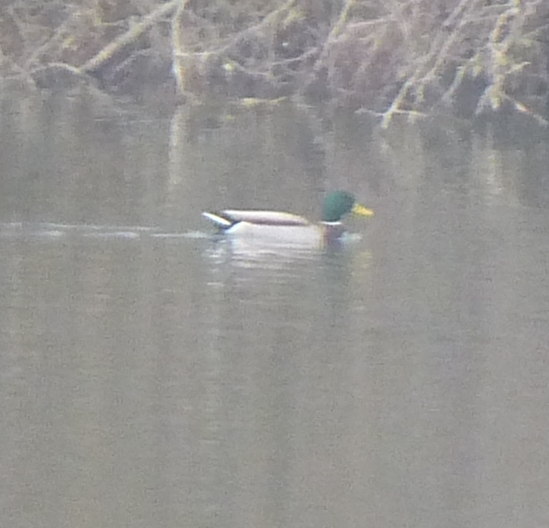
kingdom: Animalia
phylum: Chordata
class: Aves
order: Anseriformes
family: Anatidae
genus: Anas
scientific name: Anas platyrhynchos
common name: Mallard
